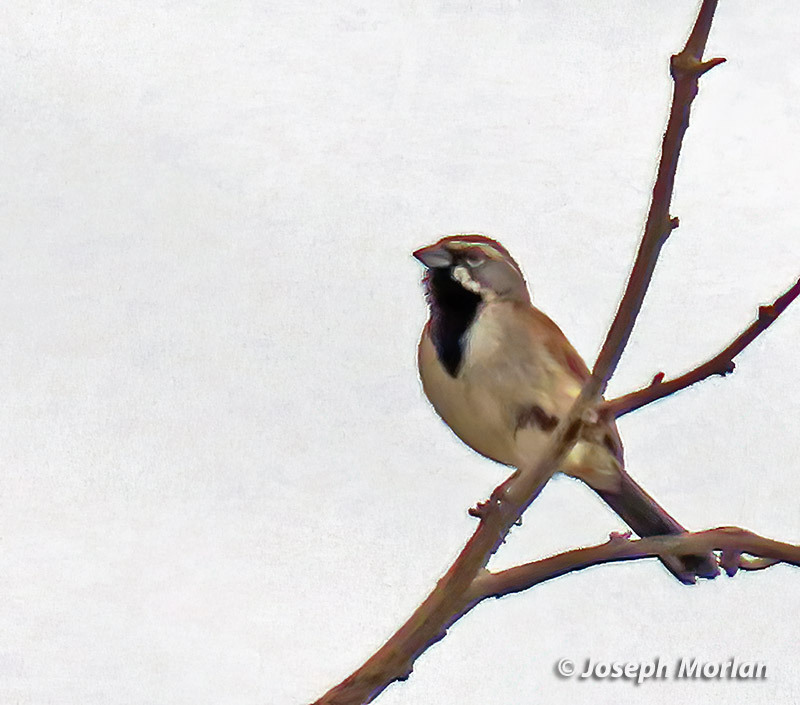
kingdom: Animalia
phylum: Chordata
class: Aves
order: Passeriformes
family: Passerellidae
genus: Amphispiza
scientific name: Amphispiza bilineata
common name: Black-throated sparrow
